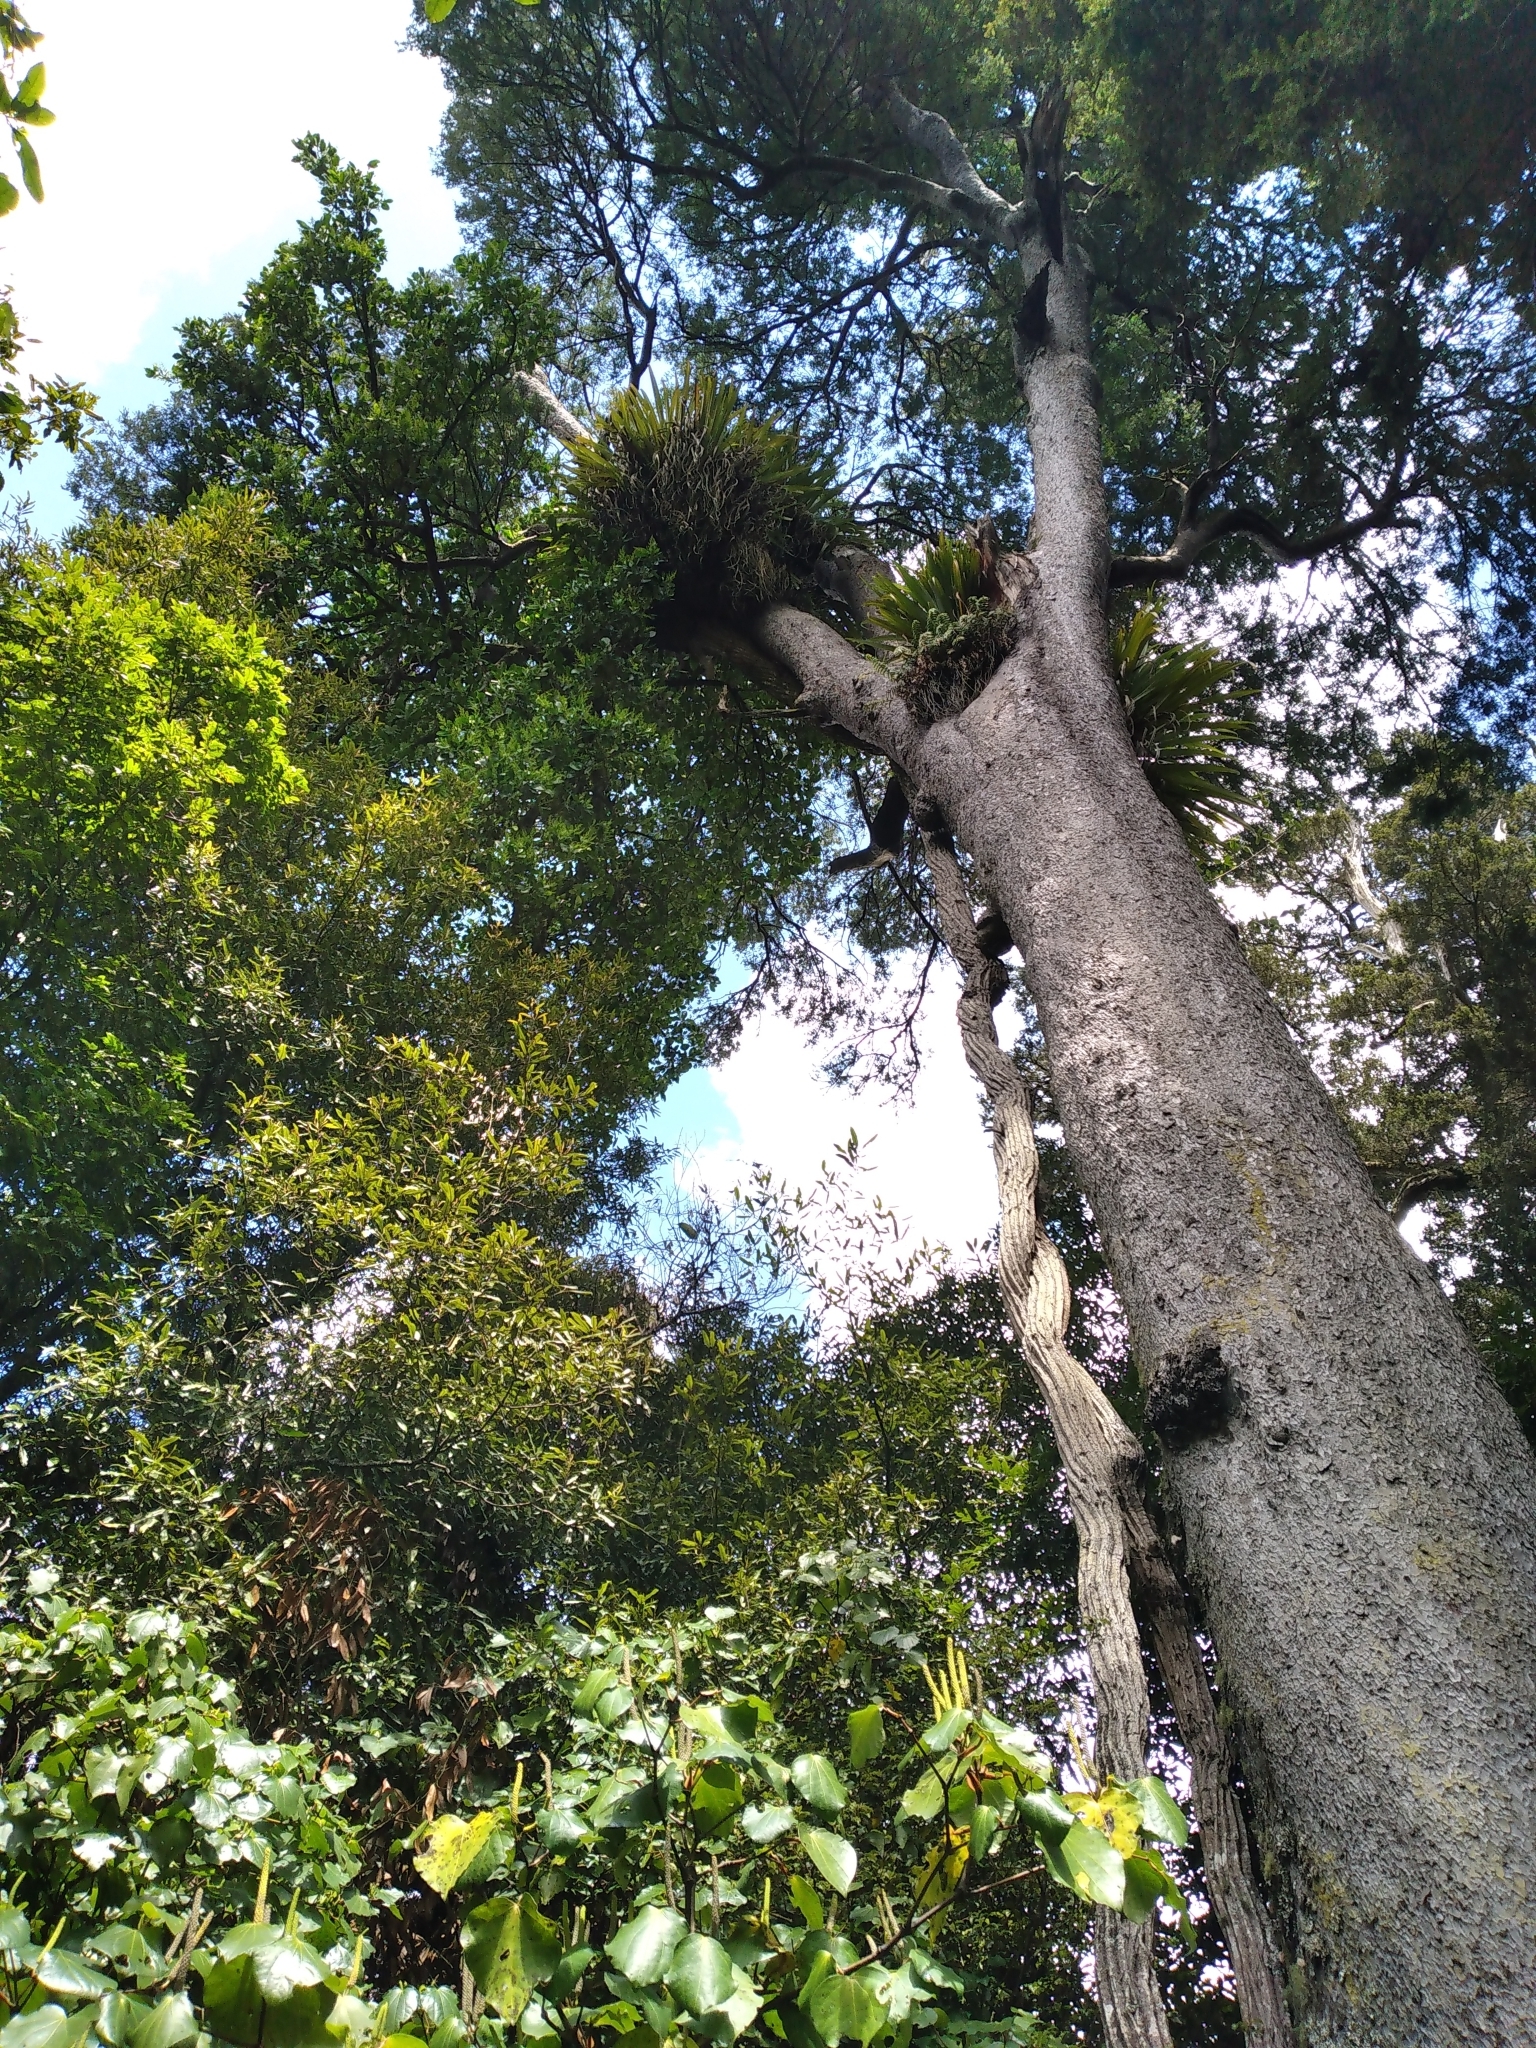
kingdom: Plantae
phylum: Tracheophyta
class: Magnoliopsida
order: Apiales
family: Griseliniaceae
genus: Griselinia
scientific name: Griselinia lucida
